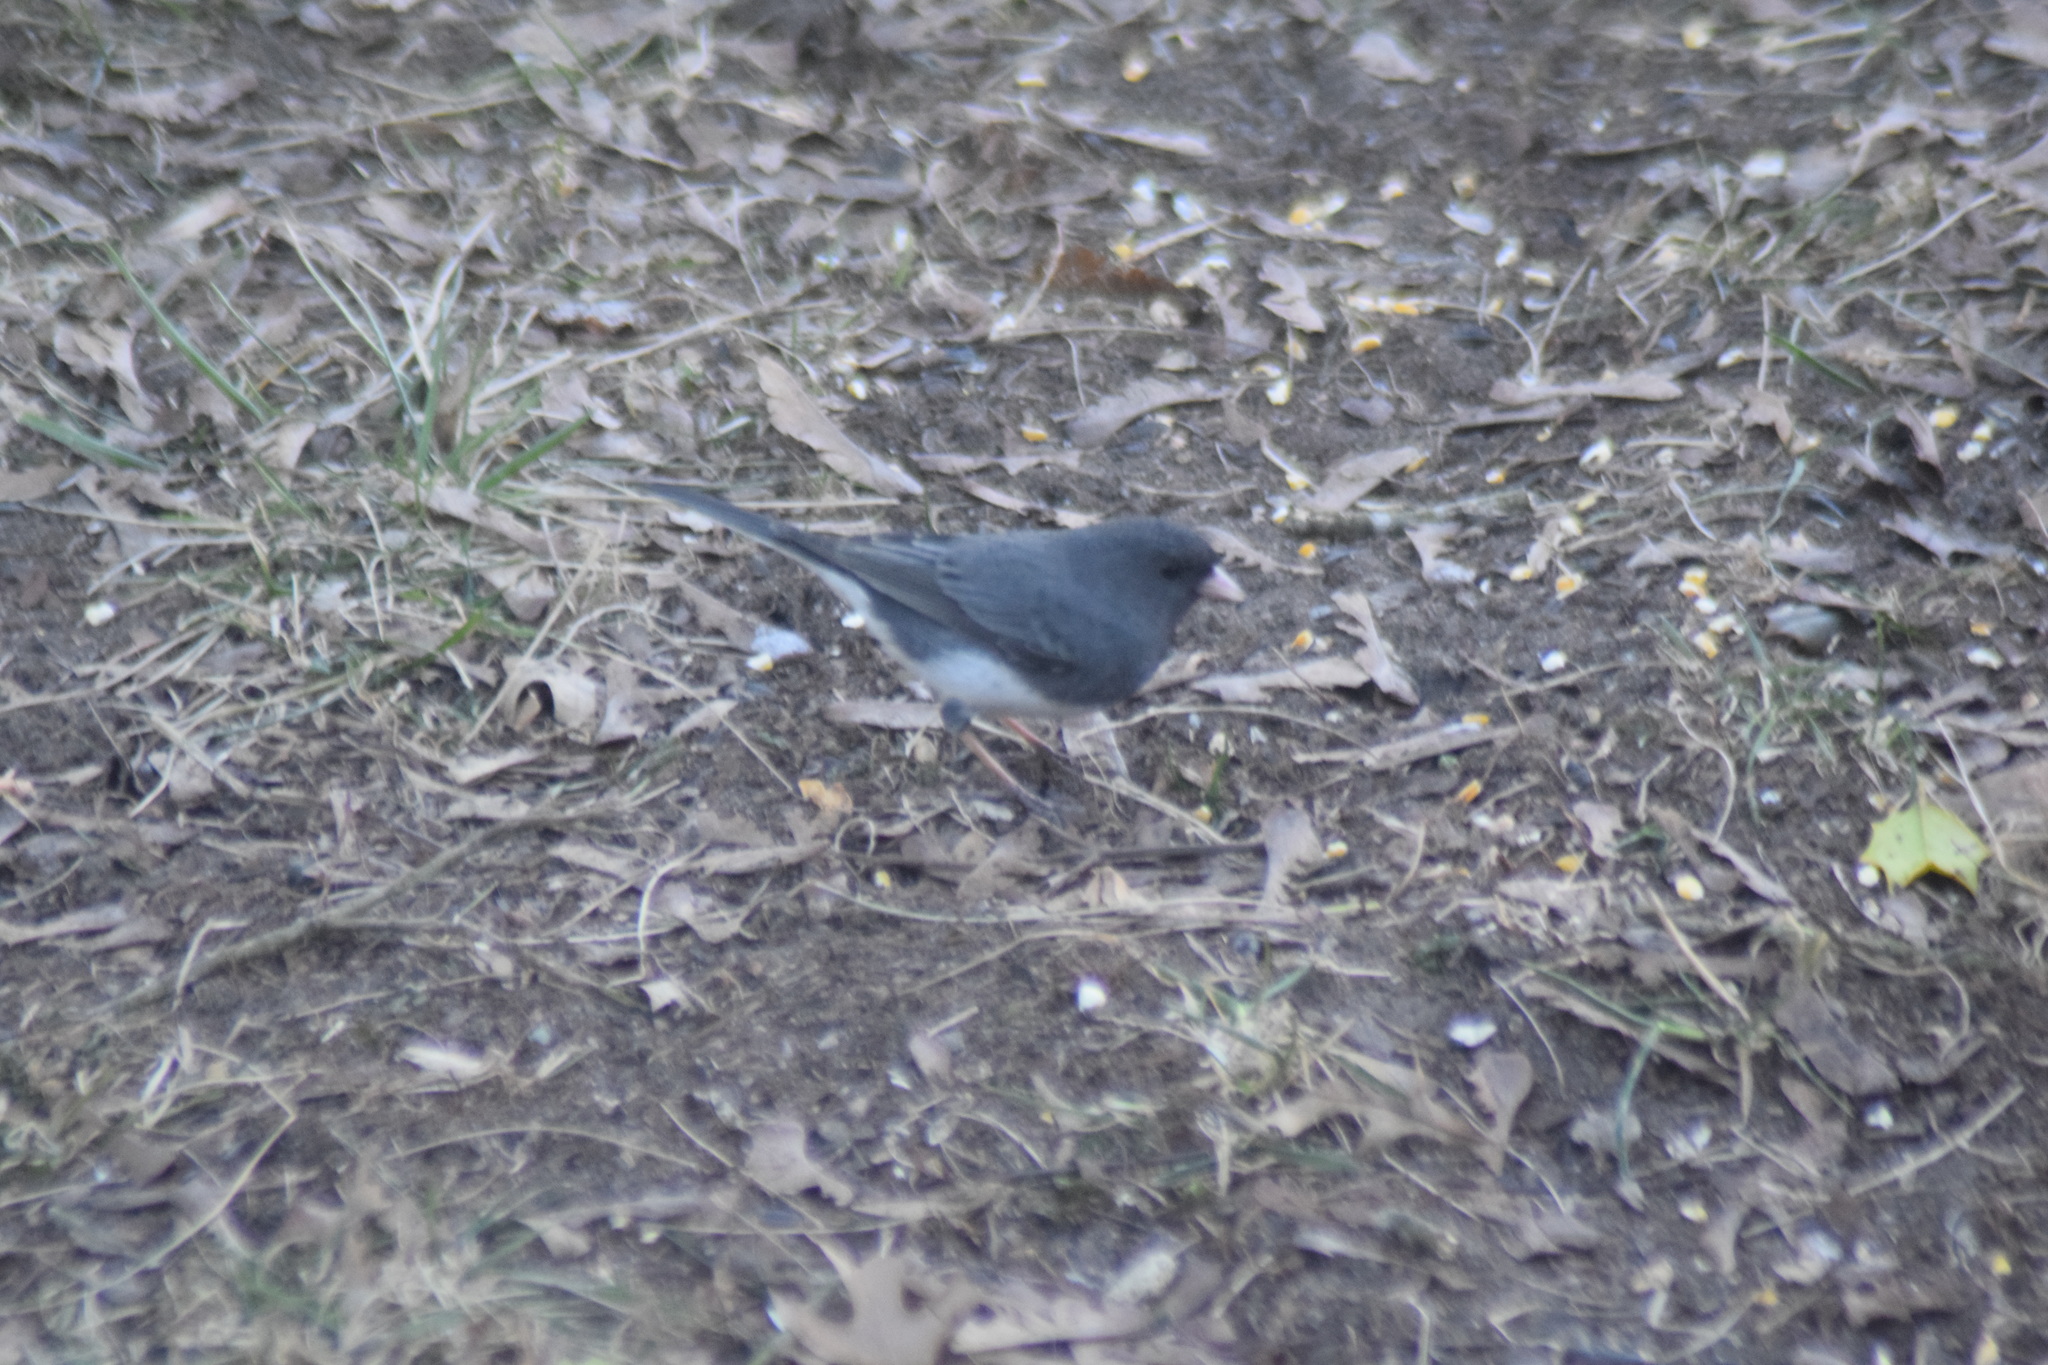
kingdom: Animalia
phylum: Chordata
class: Aves
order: Passeriformes
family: Passerellidae
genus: Junco
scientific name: Junco hyemalis
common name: Dark-eyed junco
